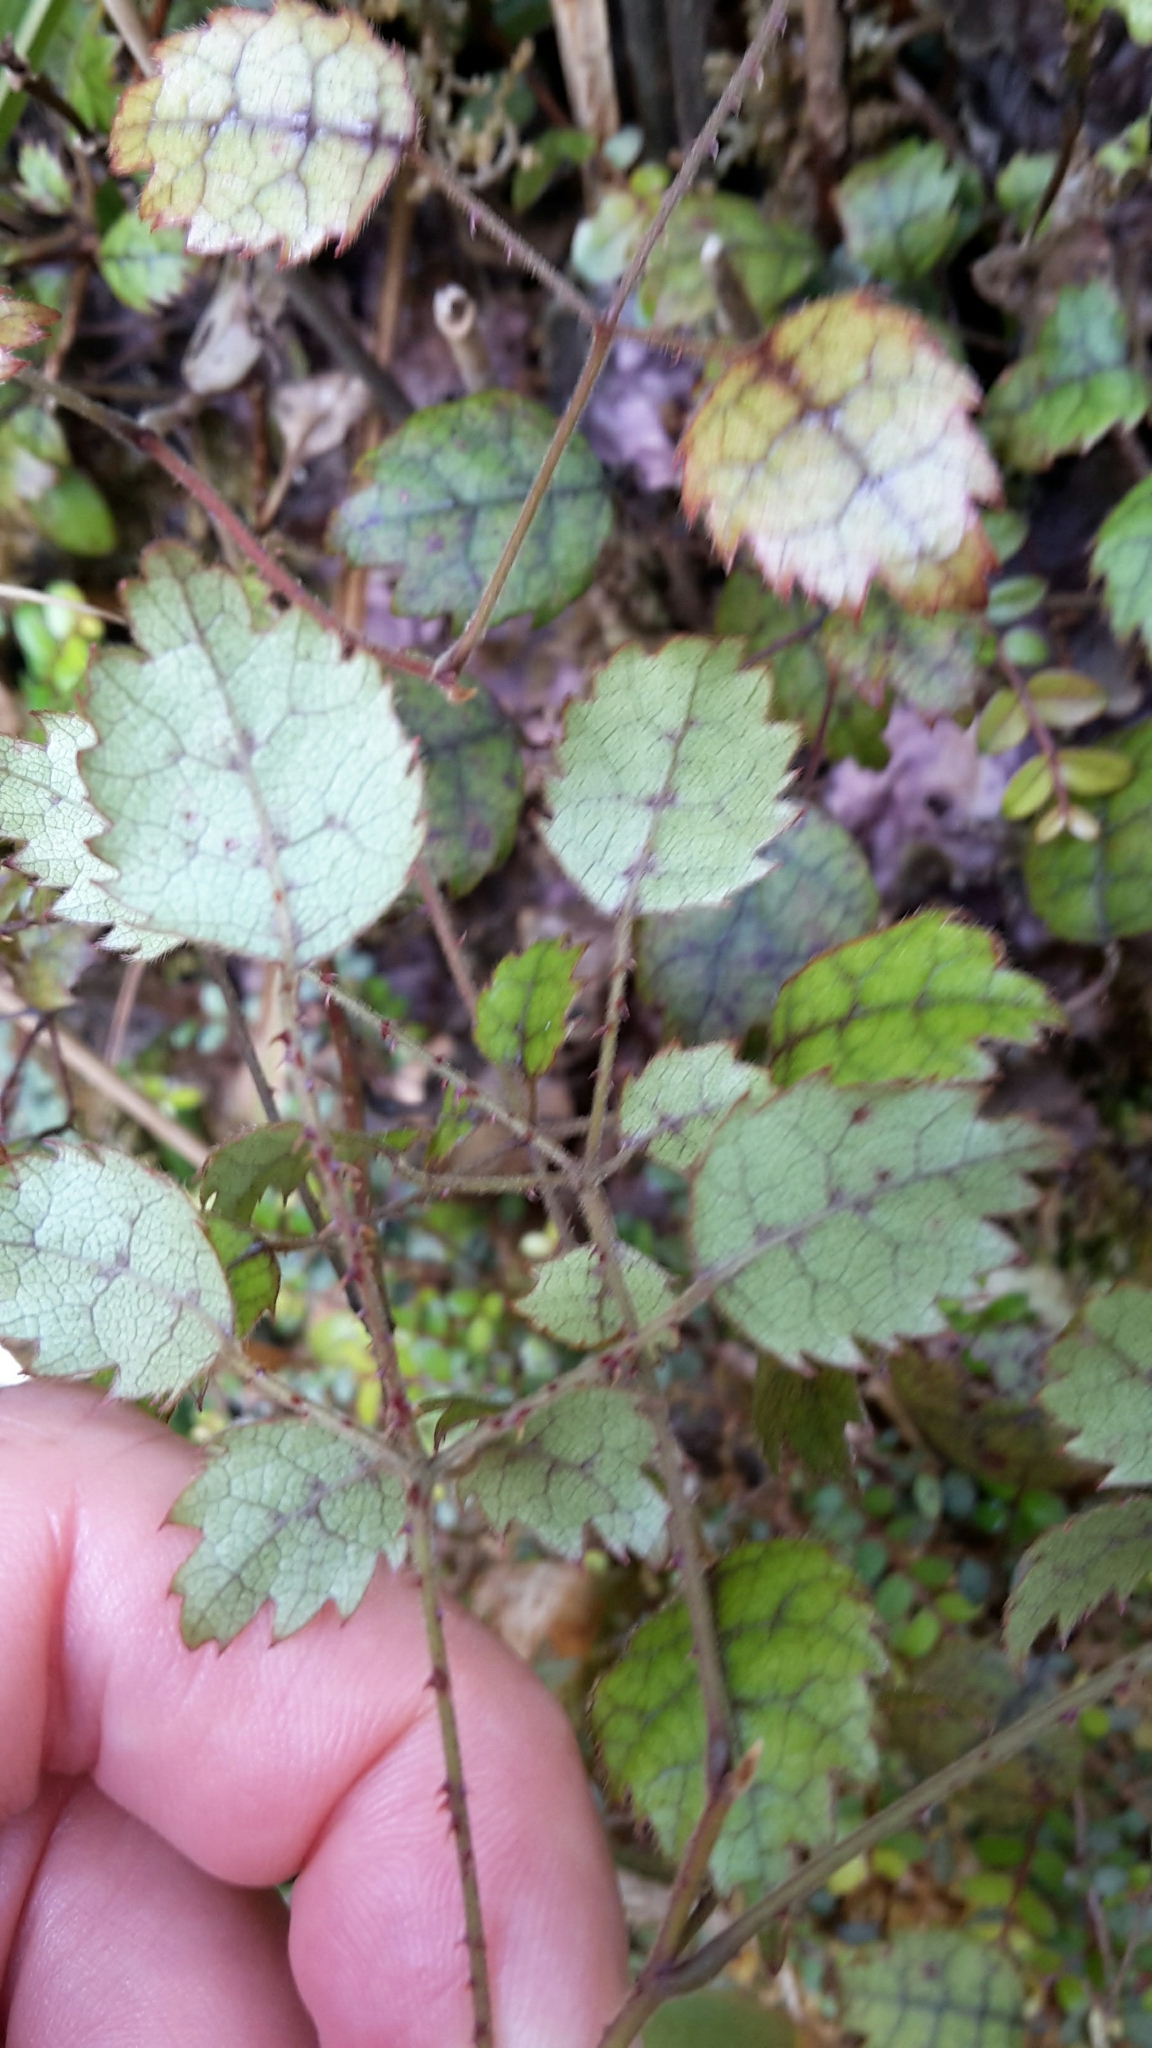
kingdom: Plantae
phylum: Tracheophyta
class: Magnoliopsida
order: Rosales
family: Rosaceae
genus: Rubus
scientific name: Rubus australis
